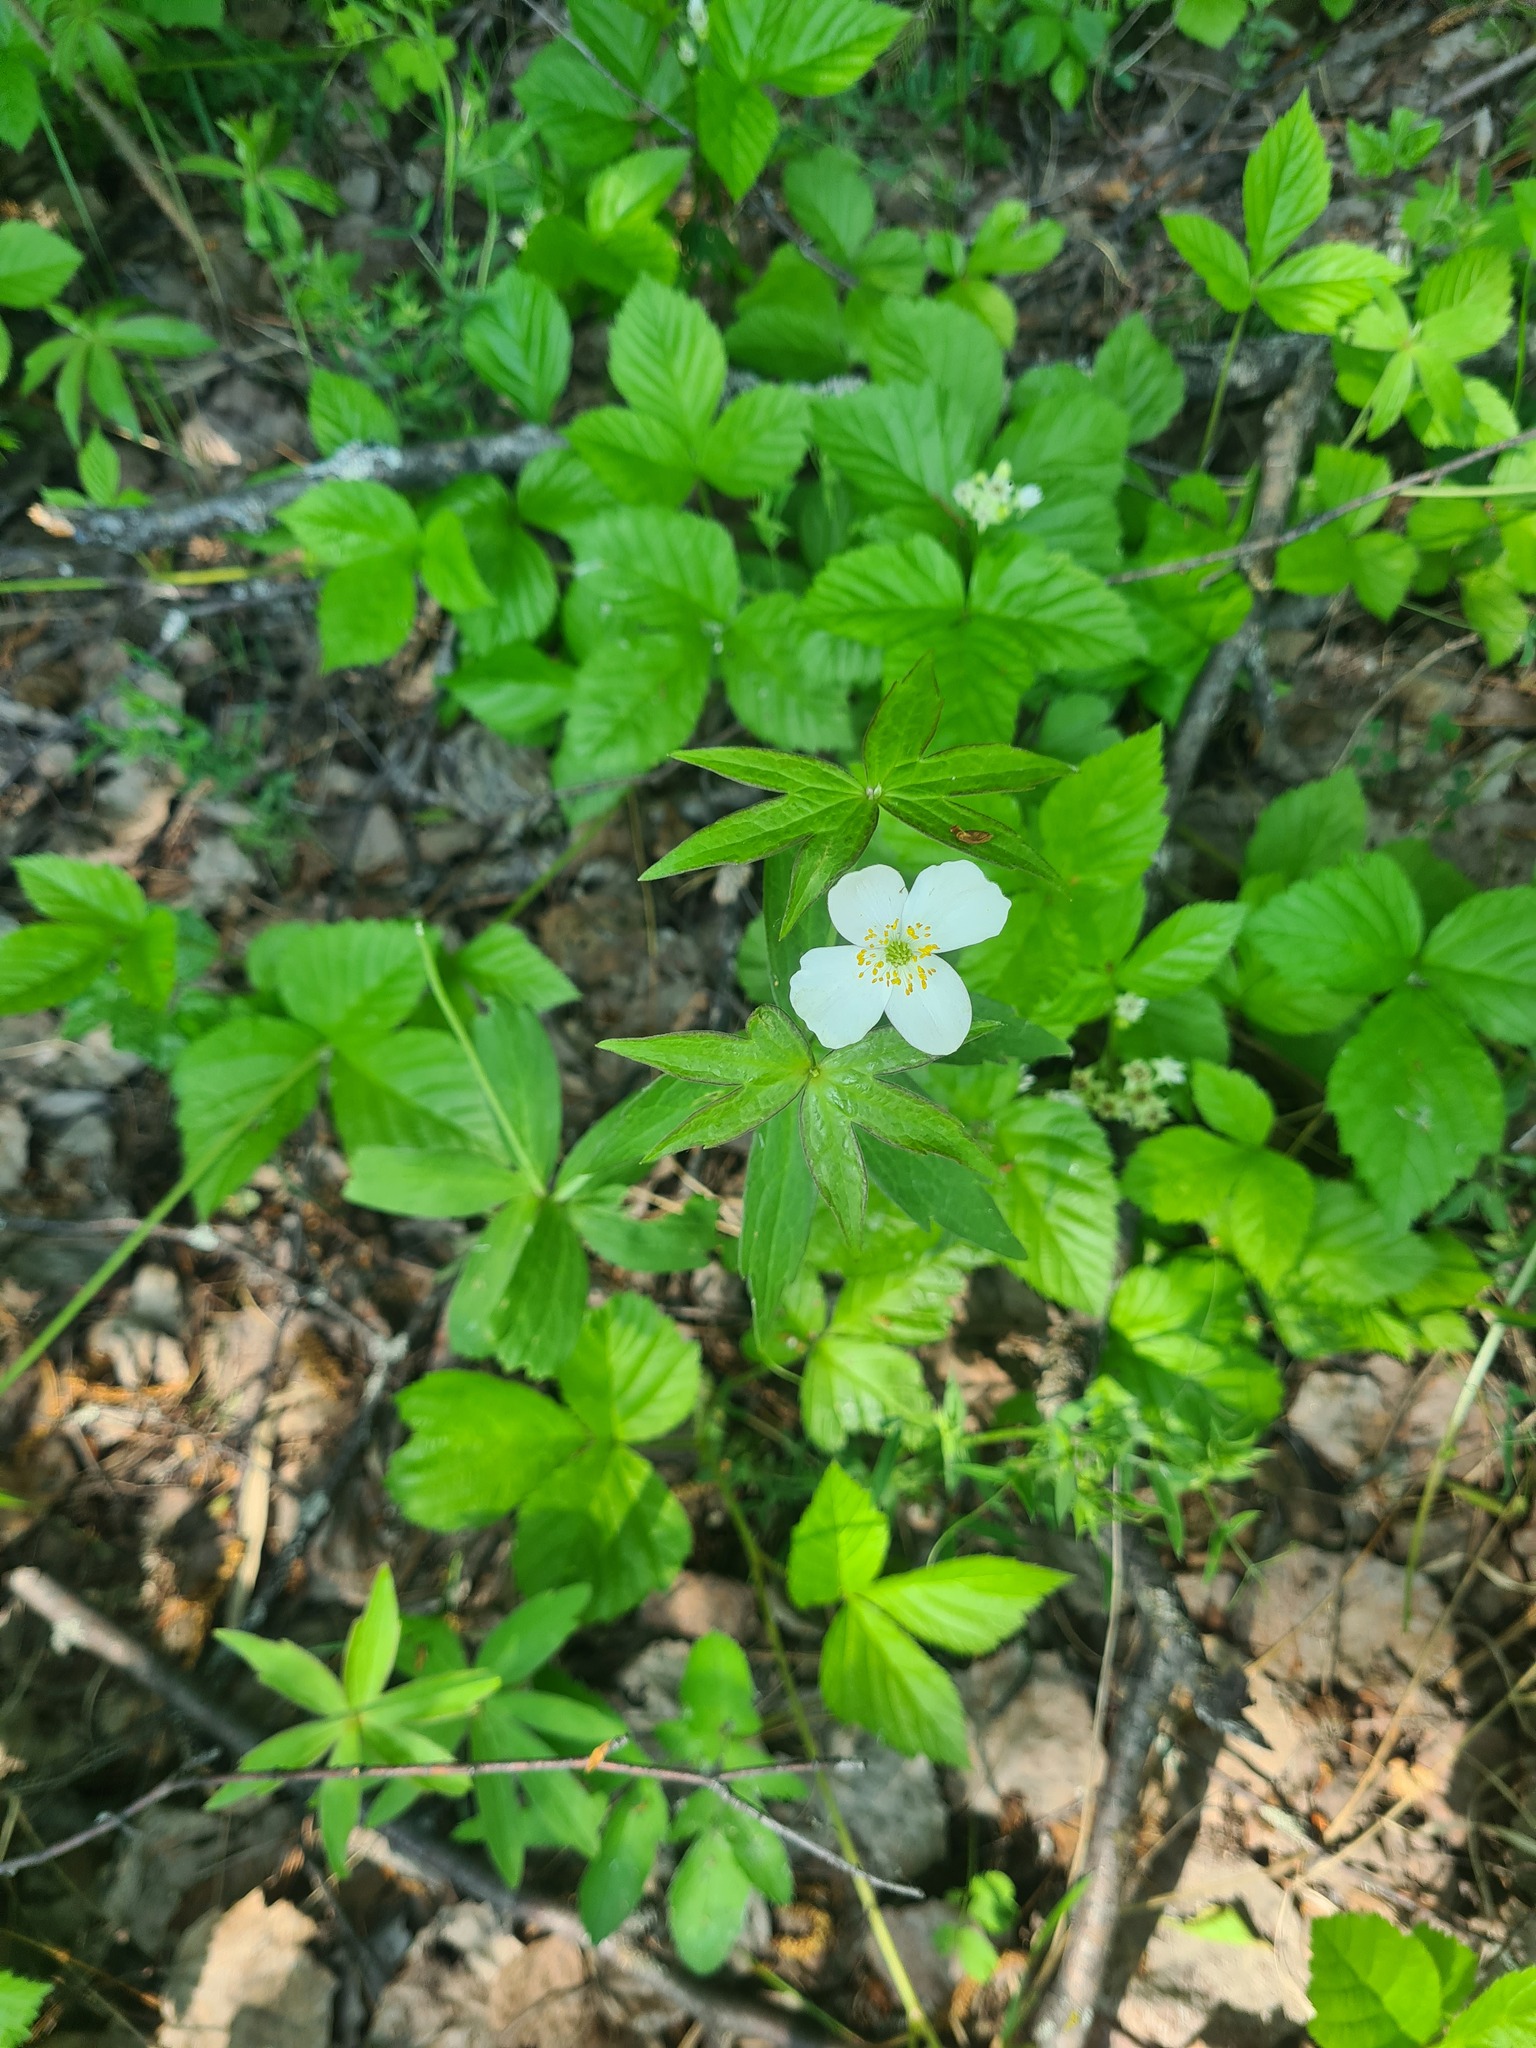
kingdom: Plantae
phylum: Tracheophyta
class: Magnoliopsida
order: Ranunculales
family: Ranunculaceae
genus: Anemonastrum
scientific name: Anemonastrum dichotomum
